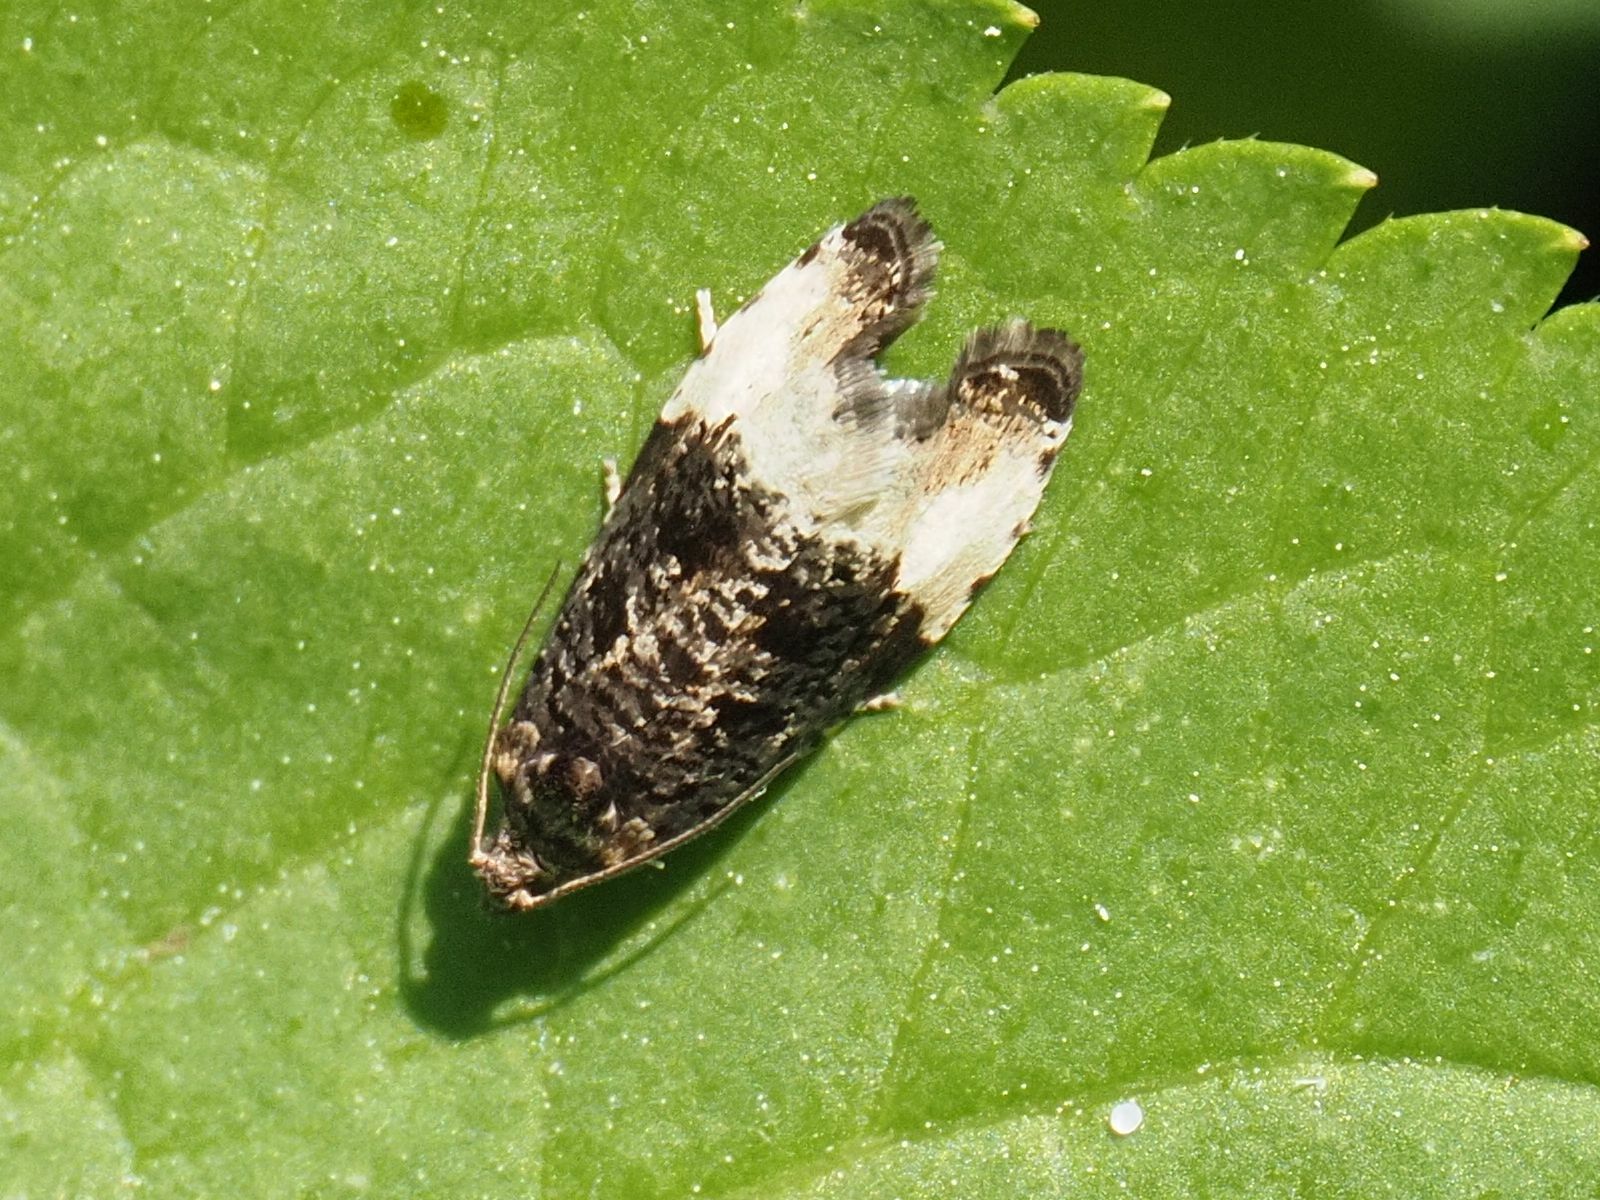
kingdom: Animalia
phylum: Arthropoda
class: Insecta
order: Lepidoptera
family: Tortricidae
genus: Hedya
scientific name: Hedya pruniana
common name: Plum tortrix
